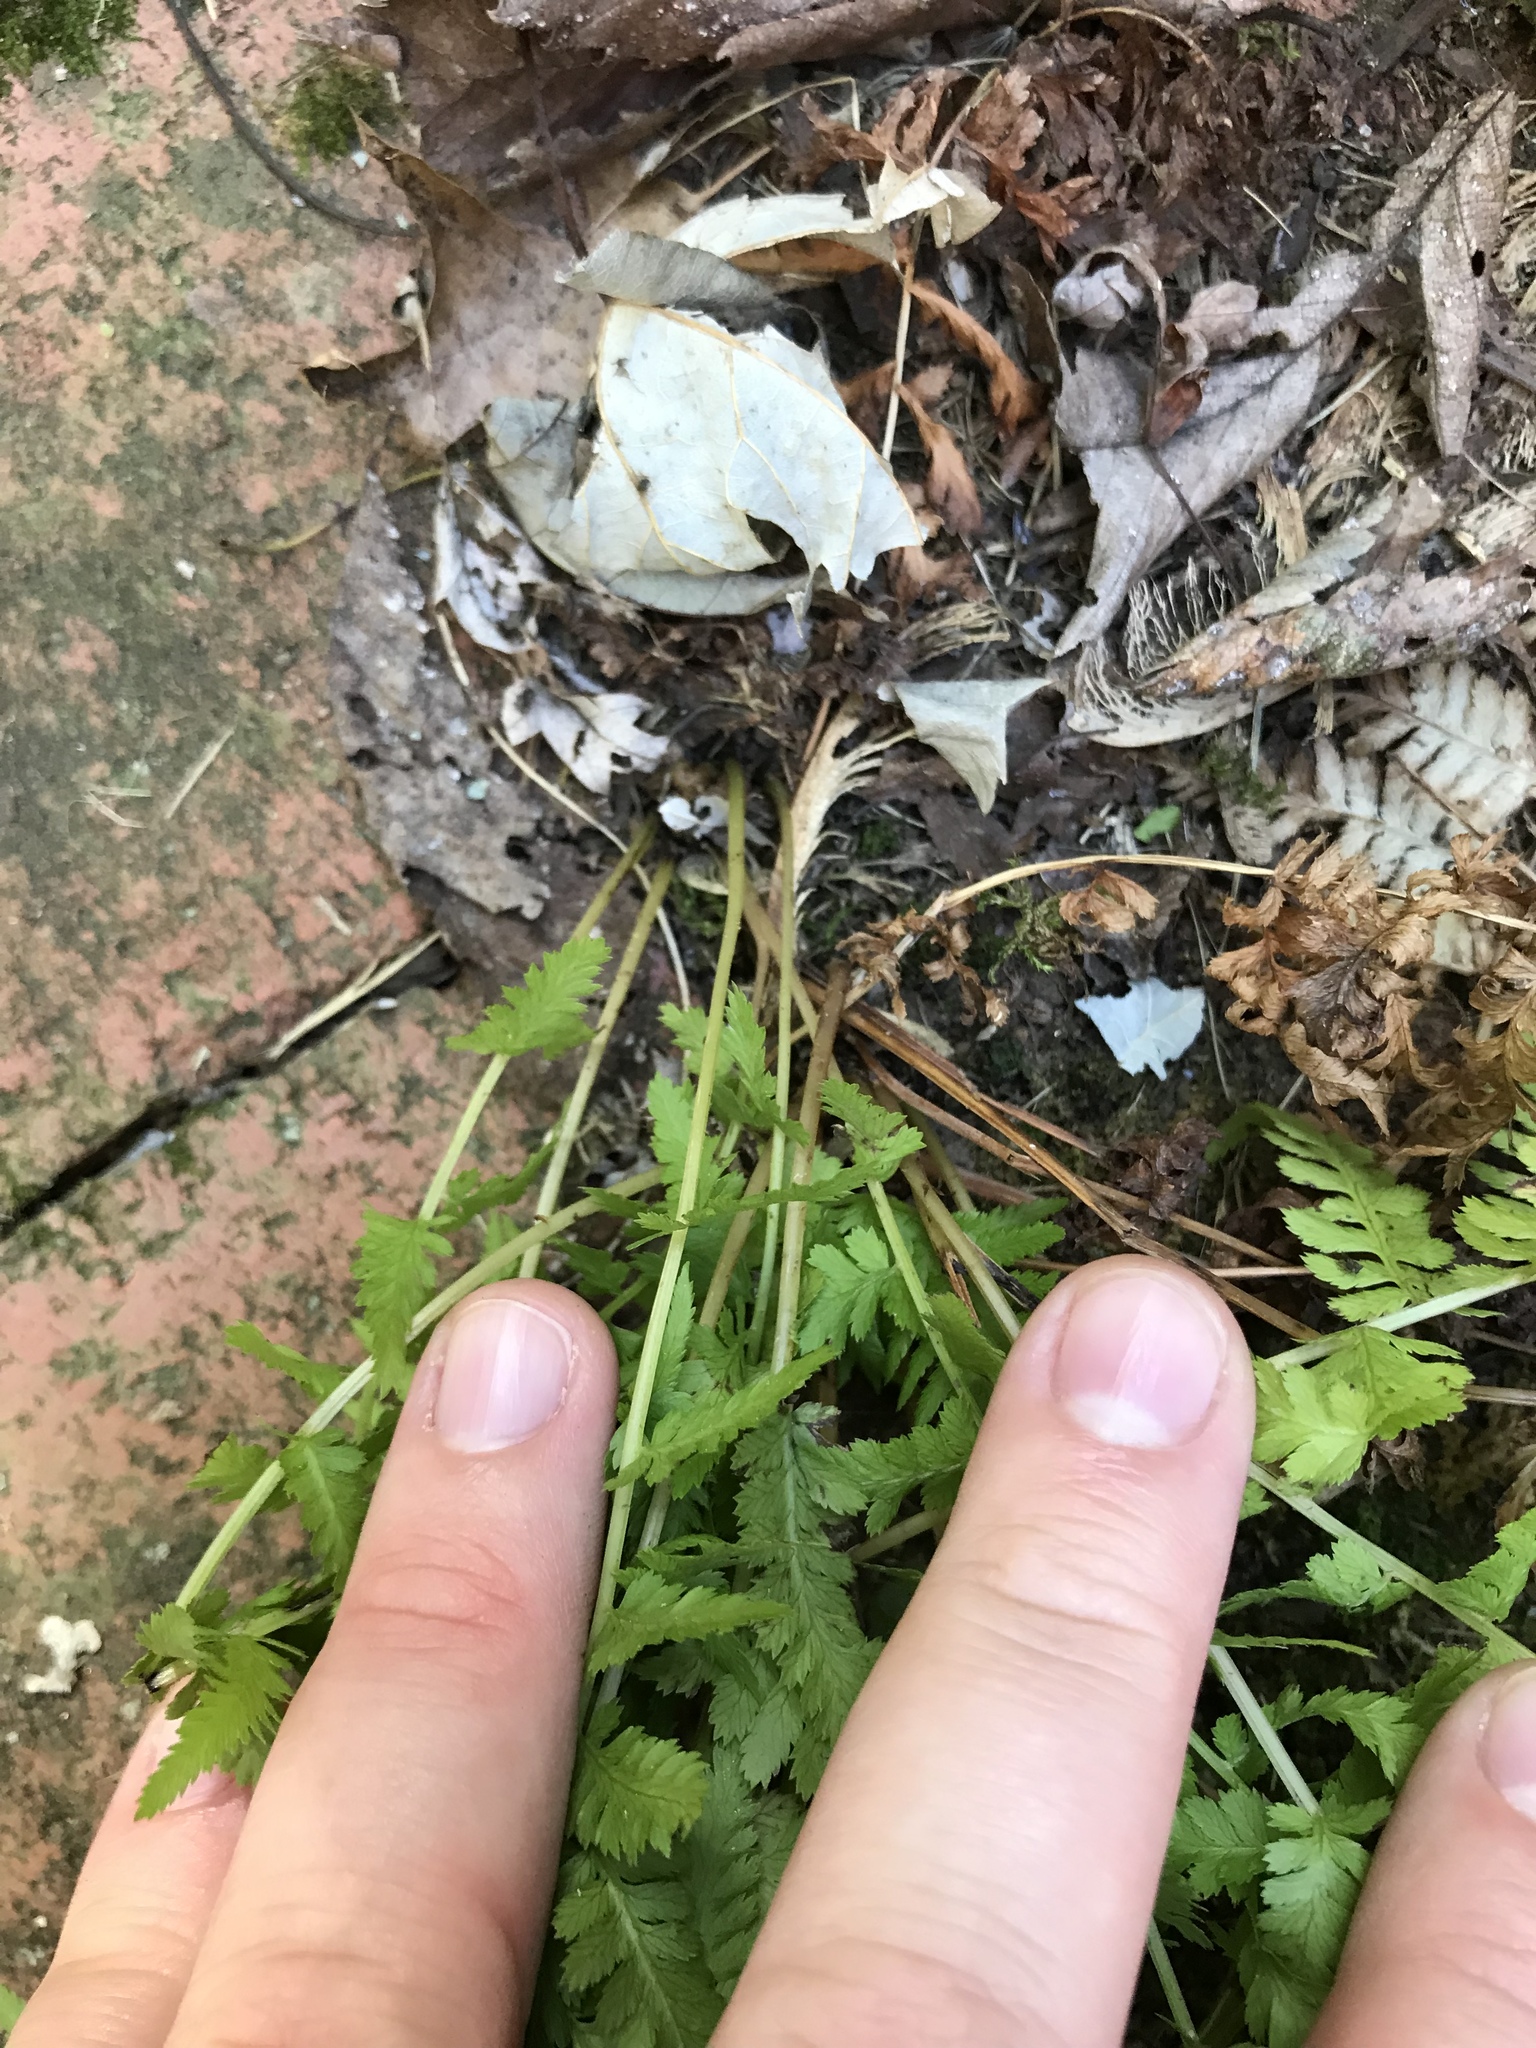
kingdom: Plantae
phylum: Tracheophyta
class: Polypodiopsida
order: Polypodiales
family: Athyriaceae
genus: Athyrium
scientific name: Athyrium angustum
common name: Northern lady fern
